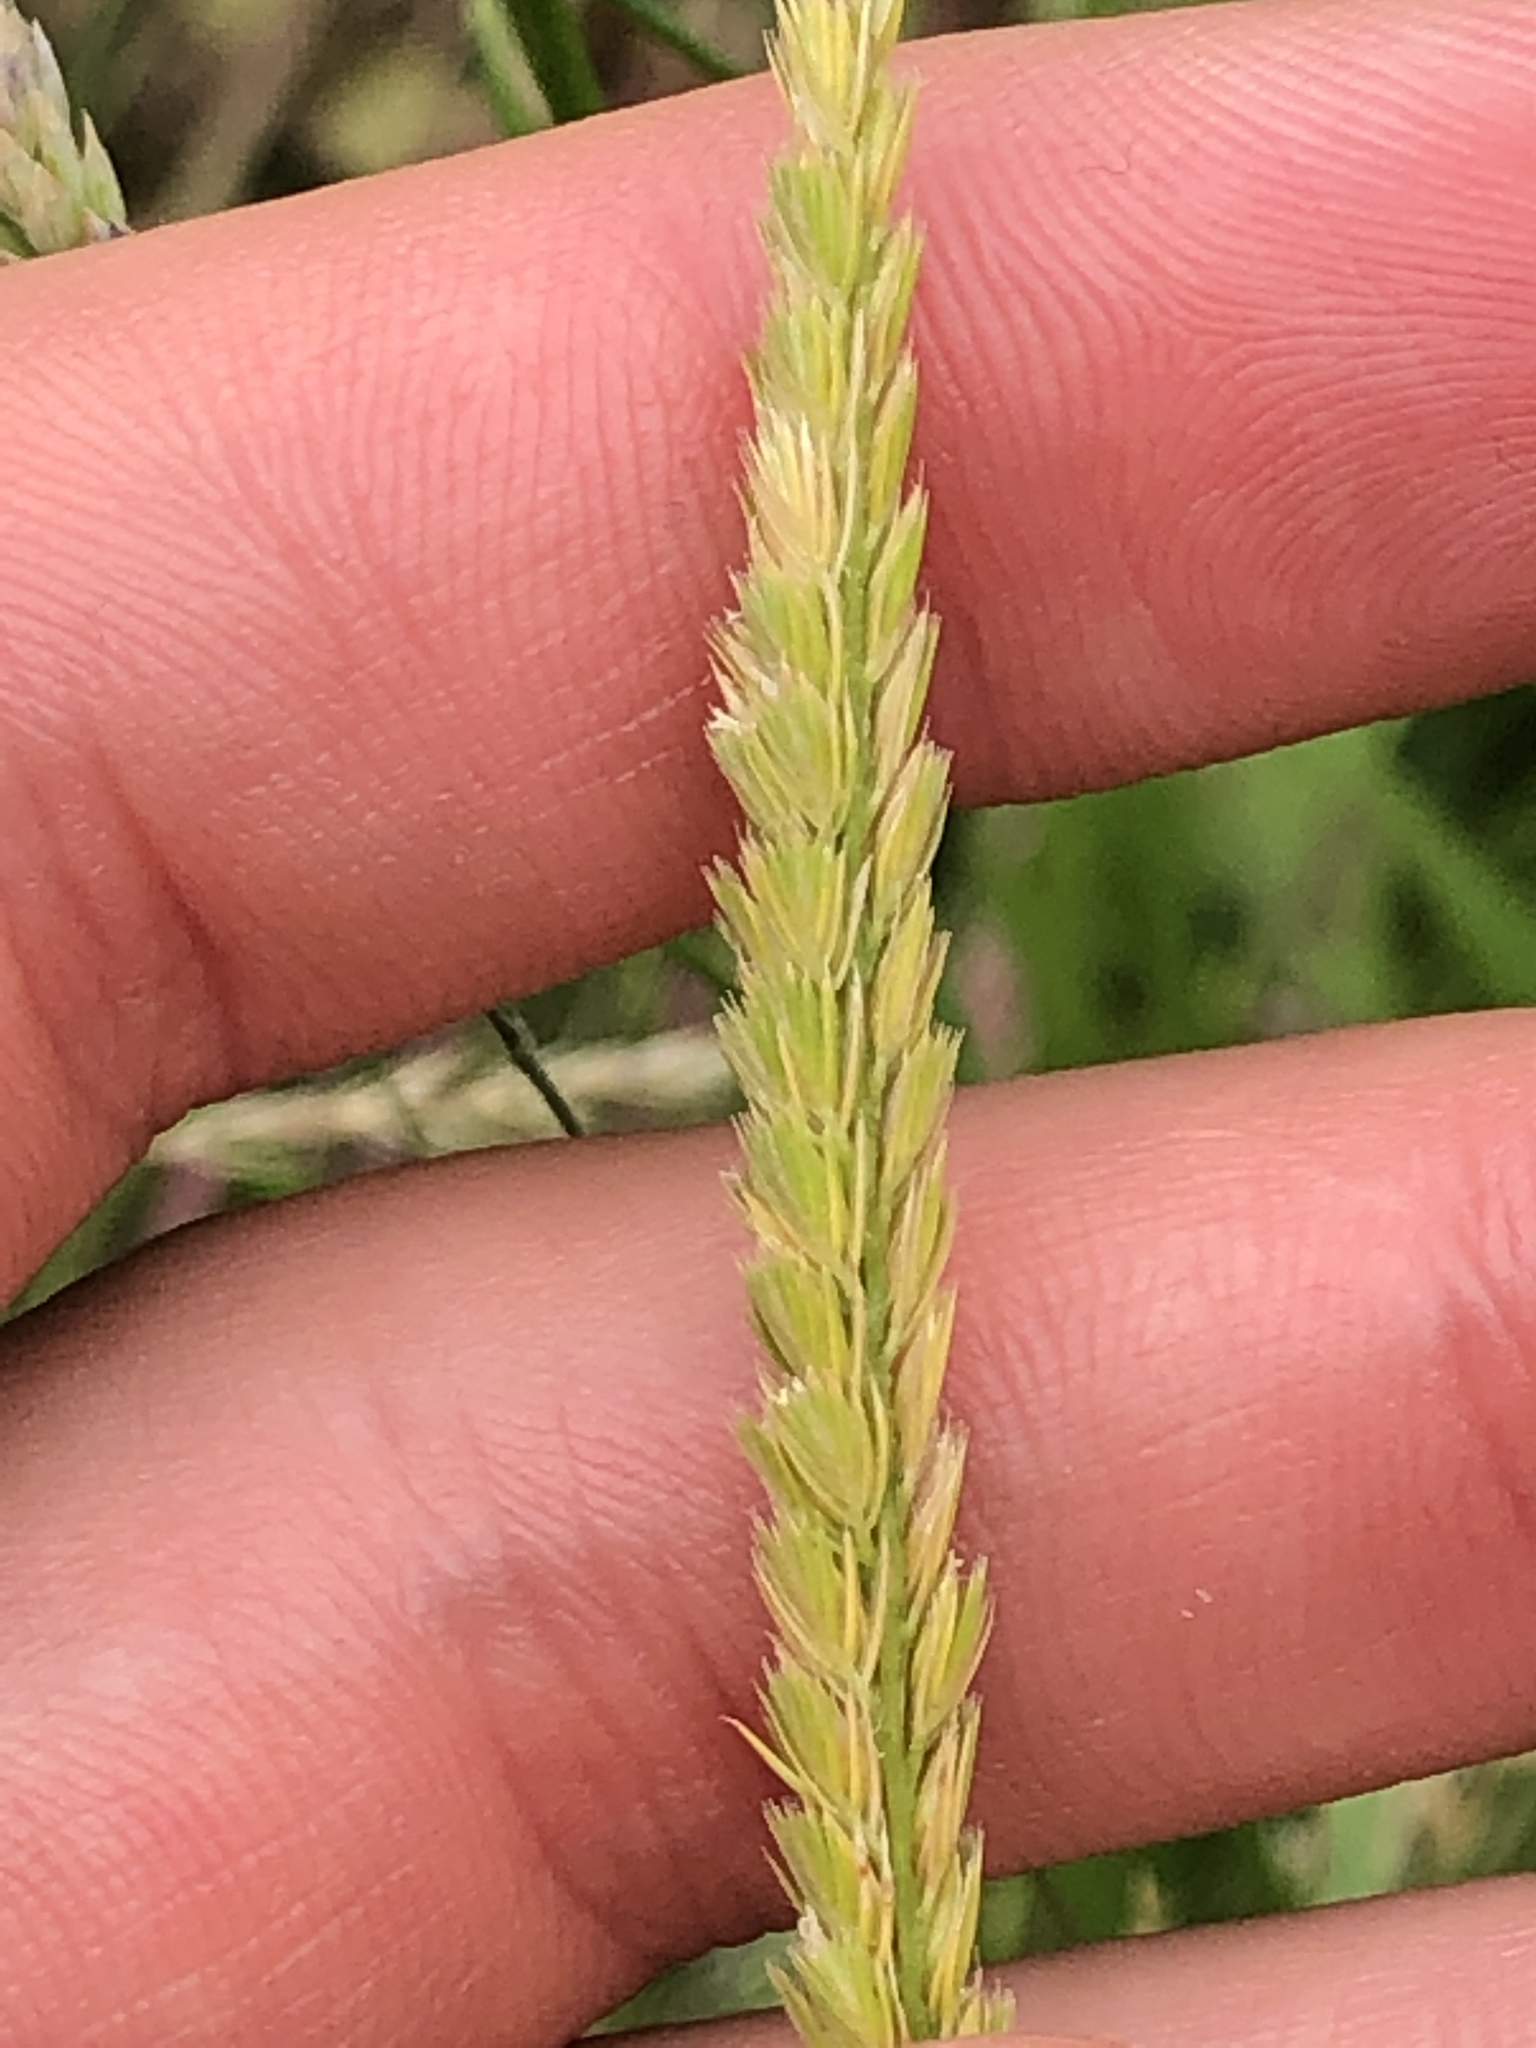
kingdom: Plantae
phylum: Tracheophyta
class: Liliopsida
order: Poales
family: Poaceae
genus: Cynosurus
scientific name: Cynosurus cristatus
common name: Crested dog's-tail
